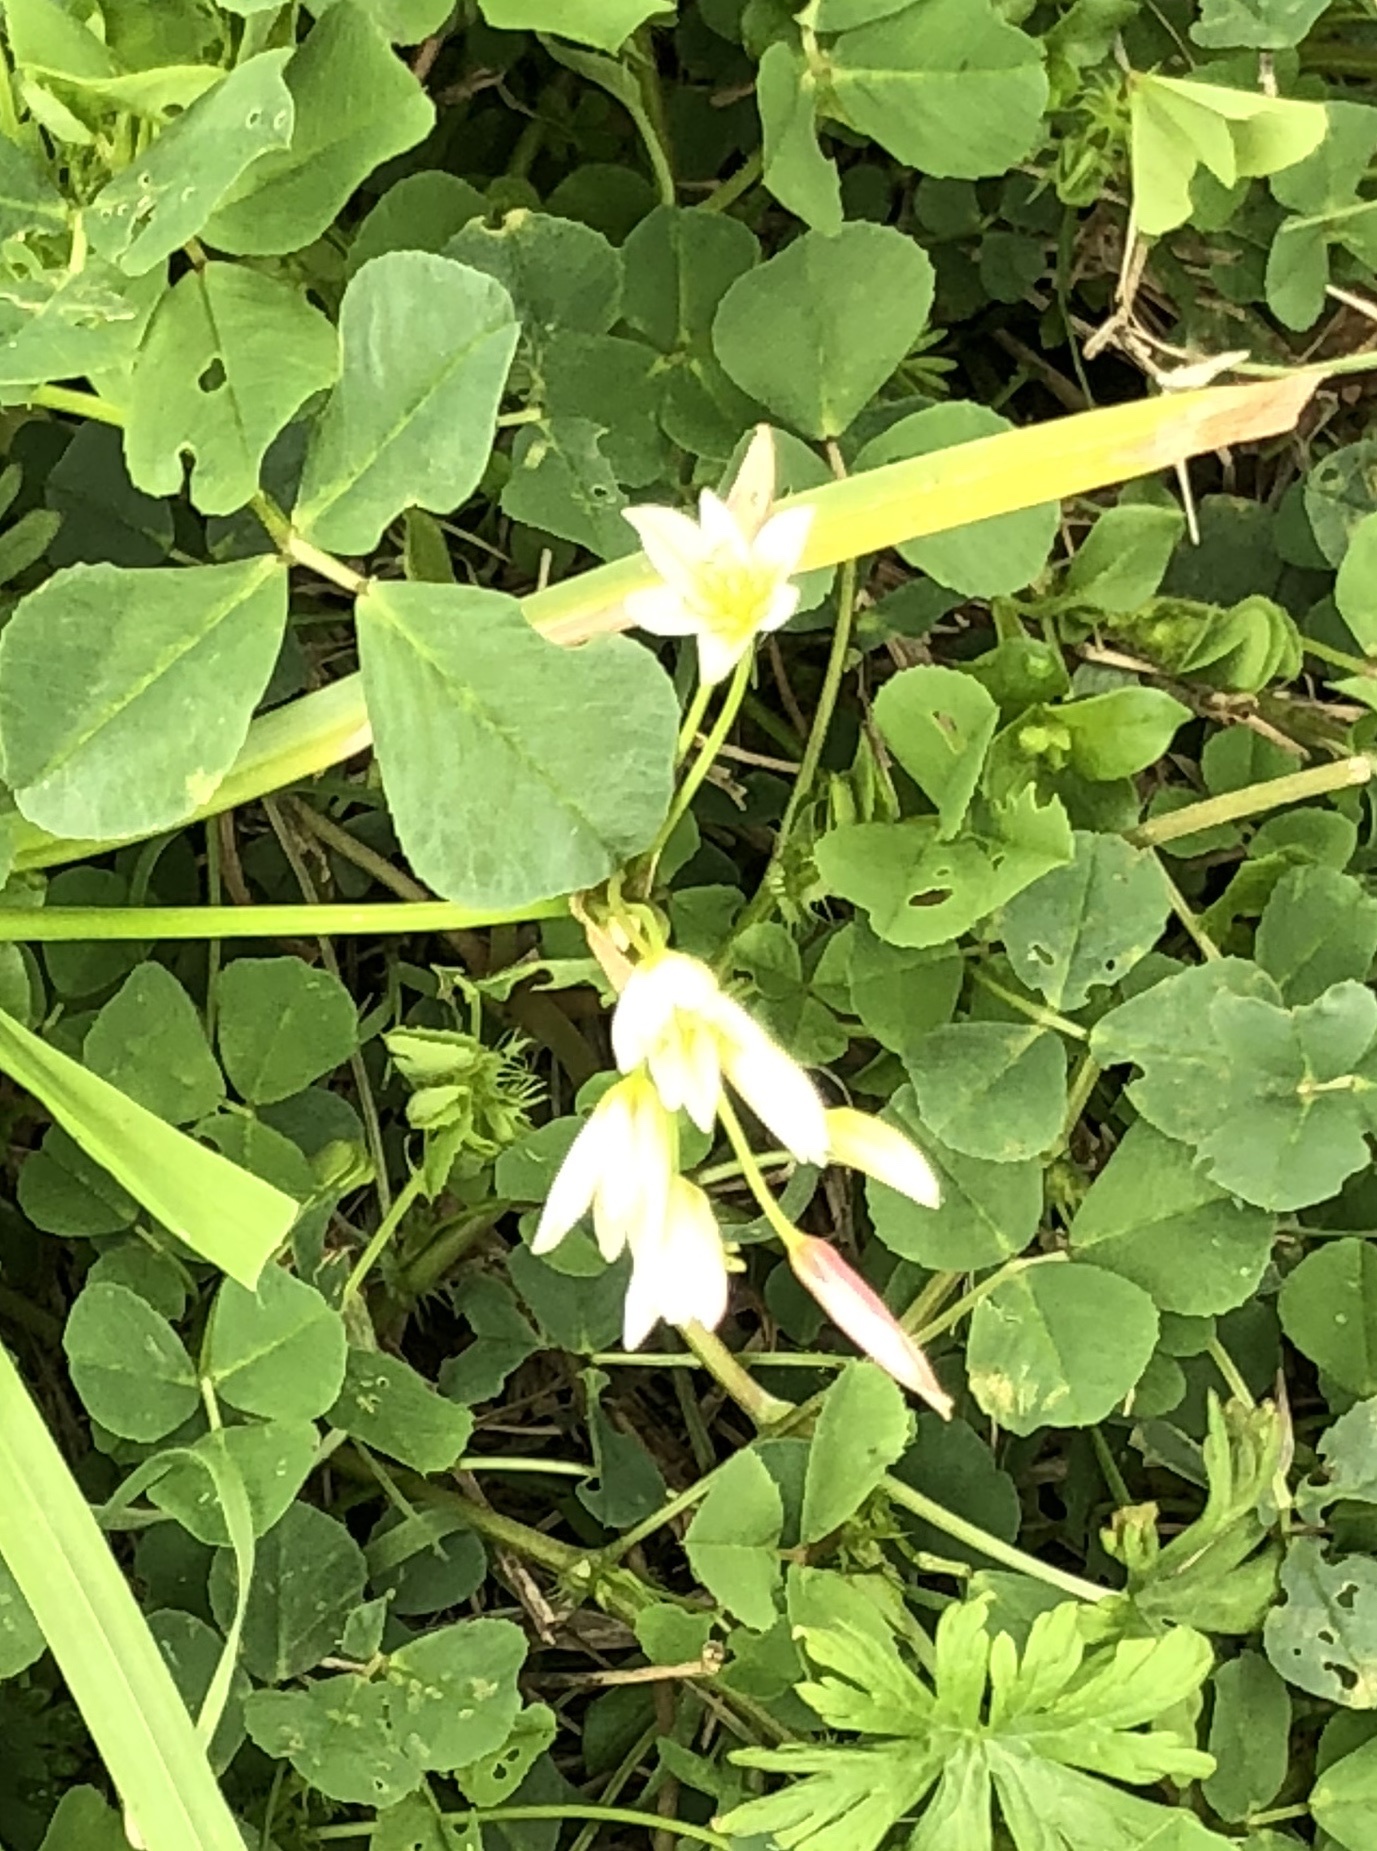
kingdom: Plantae
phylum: Tracheophyta
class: Liliopsida
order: Asparagales
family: Amaryllidaceae
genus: Nothoscordum
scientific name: Nothoscordum bivalve
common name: Crow-poison
